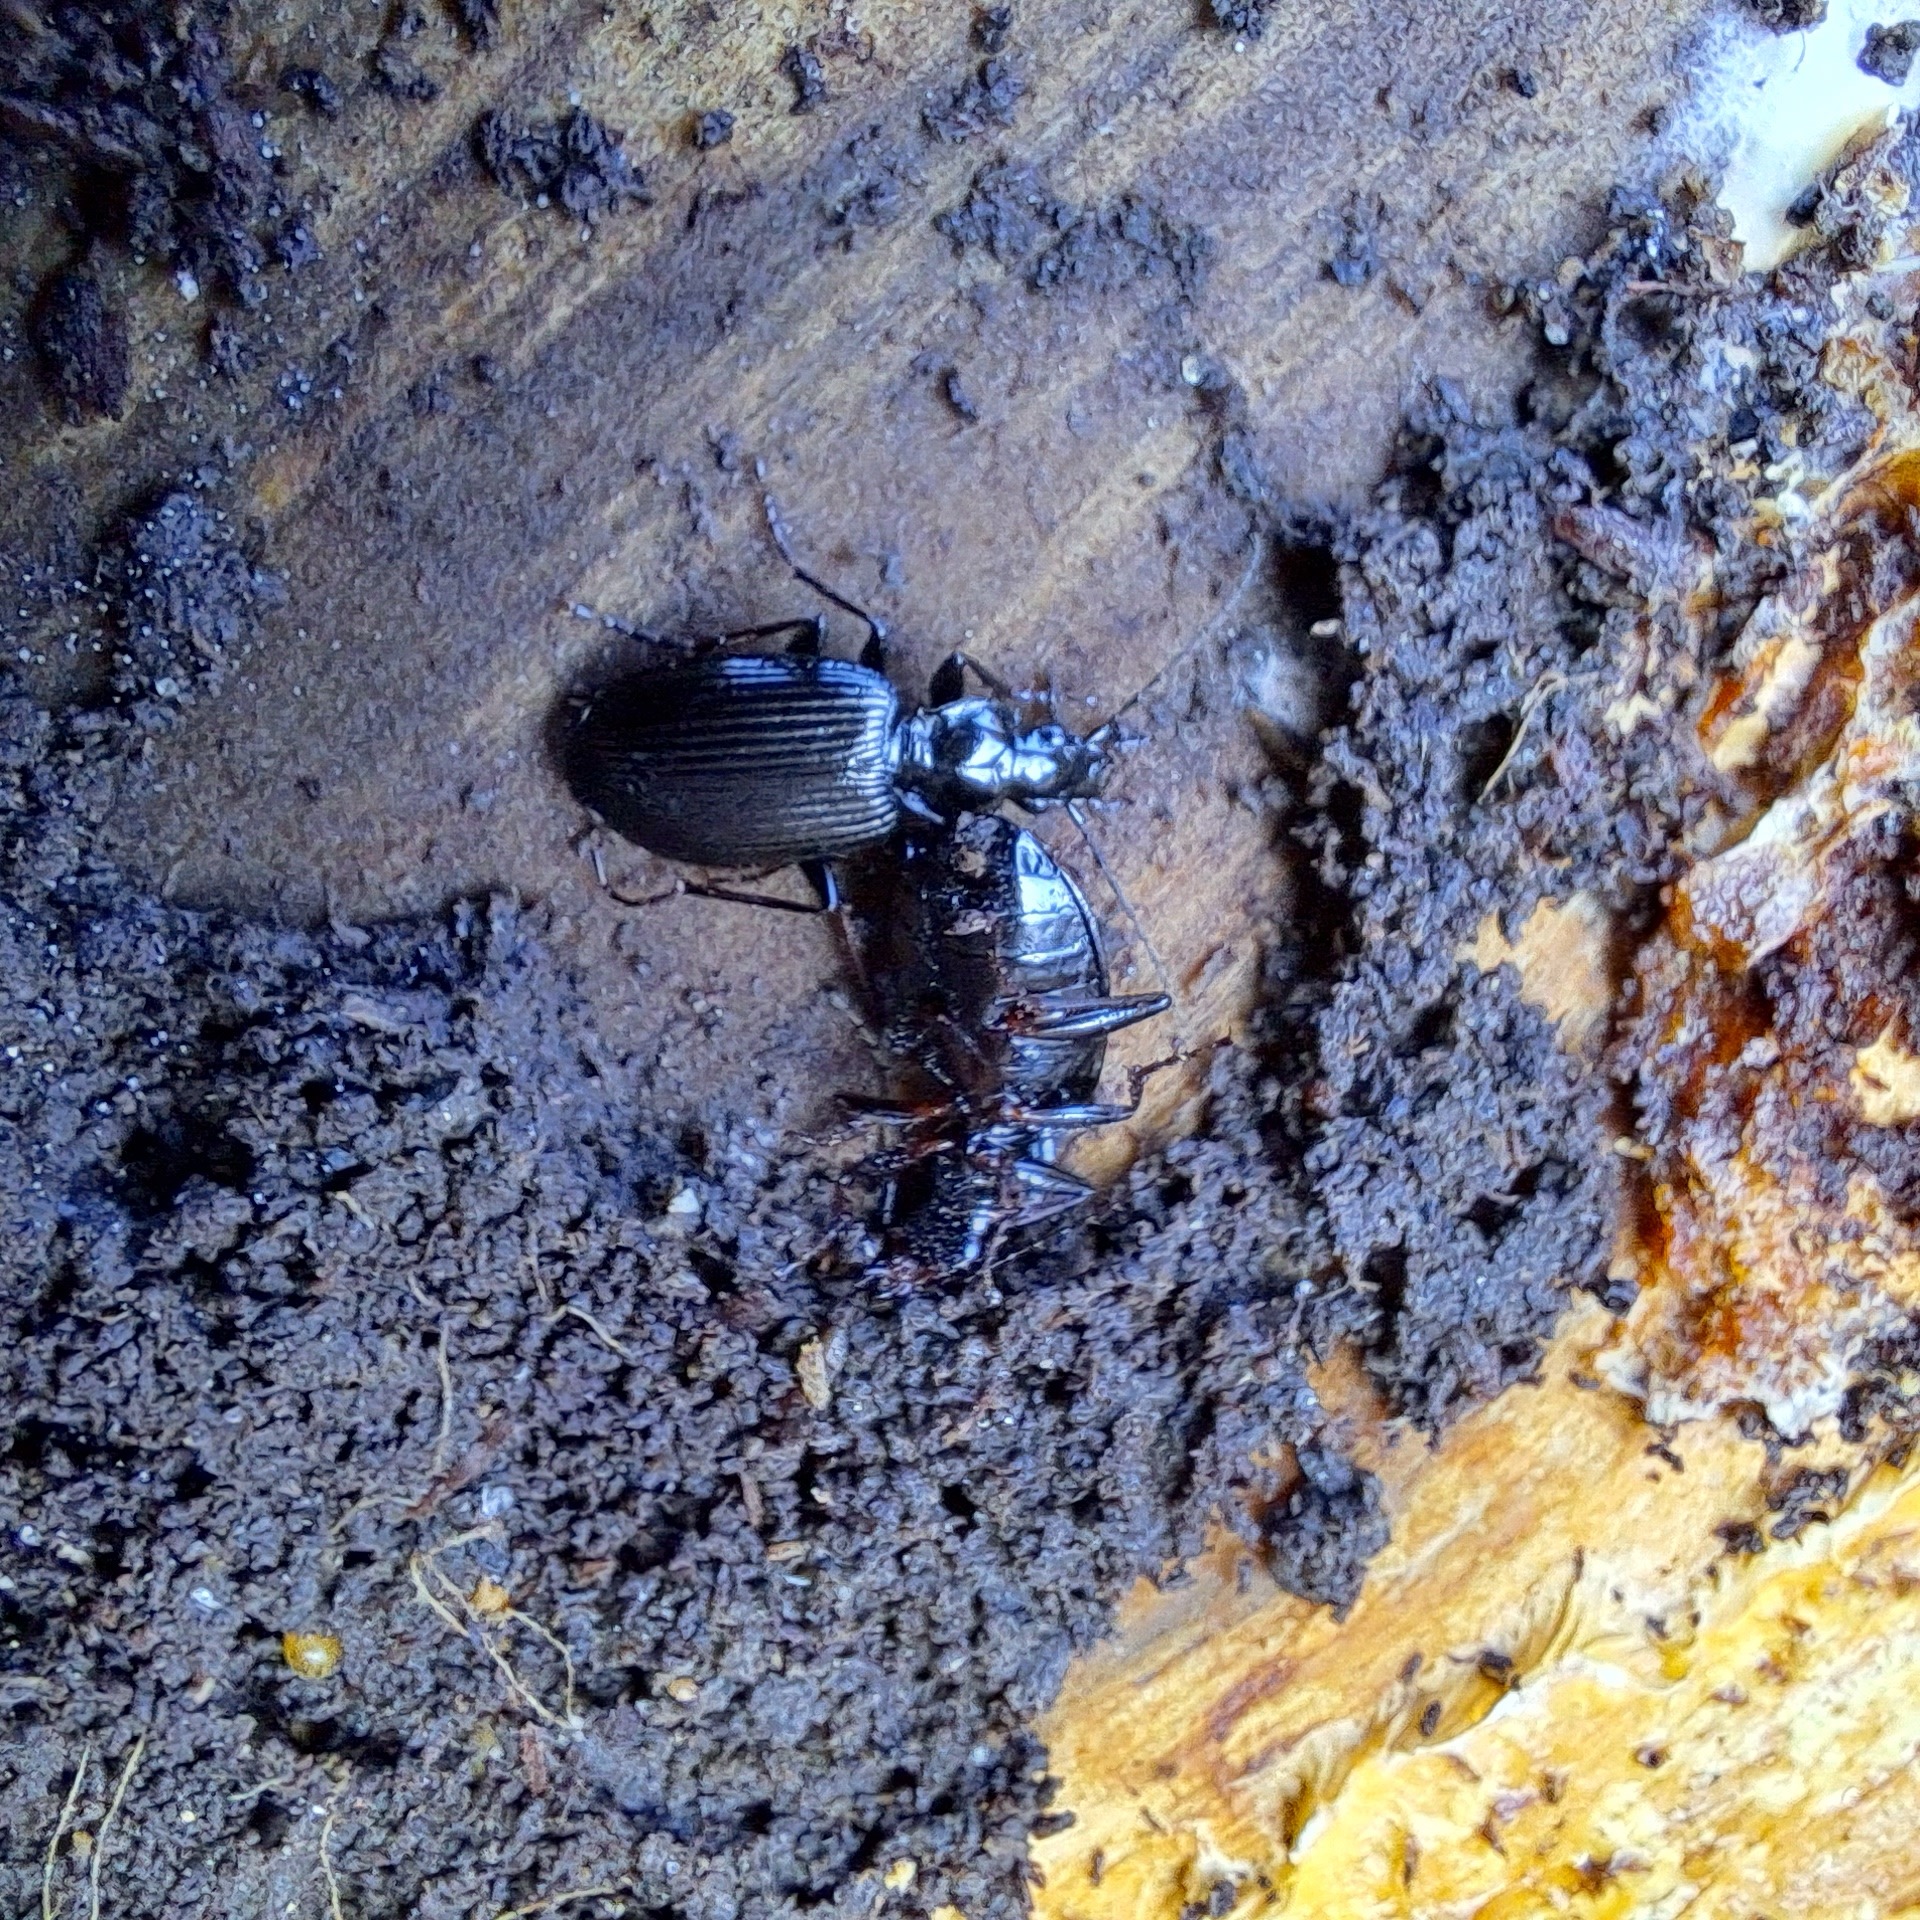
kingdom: Animalia
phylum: Arthropoda
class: Insecta
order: Coleoptera
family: Carabidae
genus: Platynus
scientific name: Platynus assimilis
